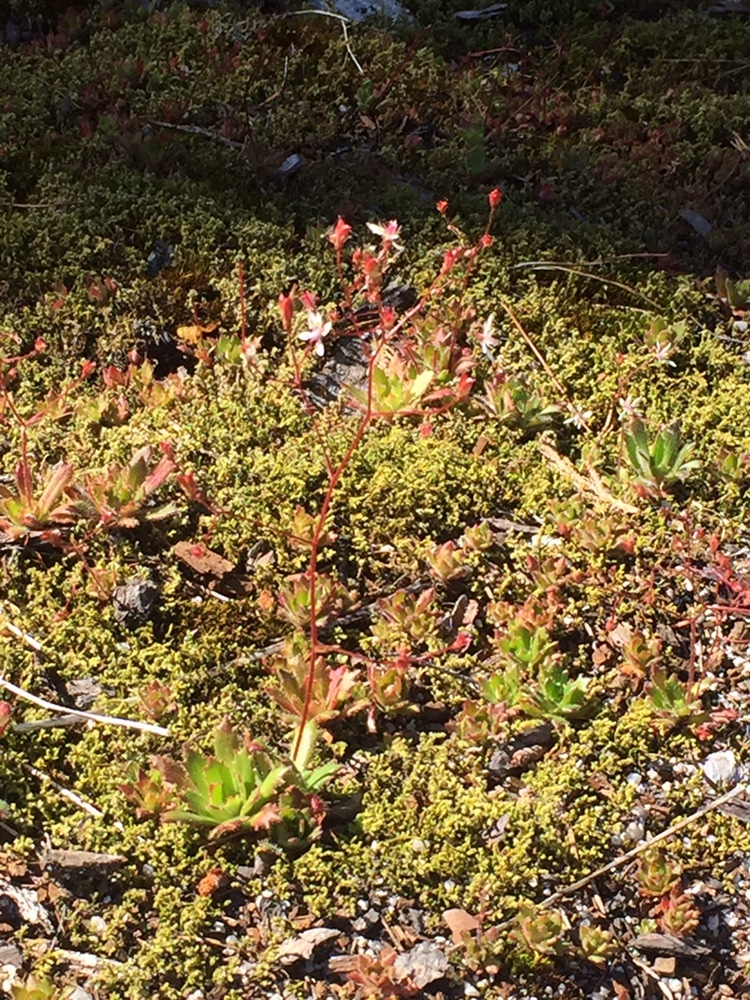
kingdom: Plantae
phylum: Tracheophyta
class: Magnoliopsida
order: Saxifragales
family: Saxifragaceae
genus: Micranthes
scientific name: Micranthes ferruginea
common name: Rusty saxifrage
